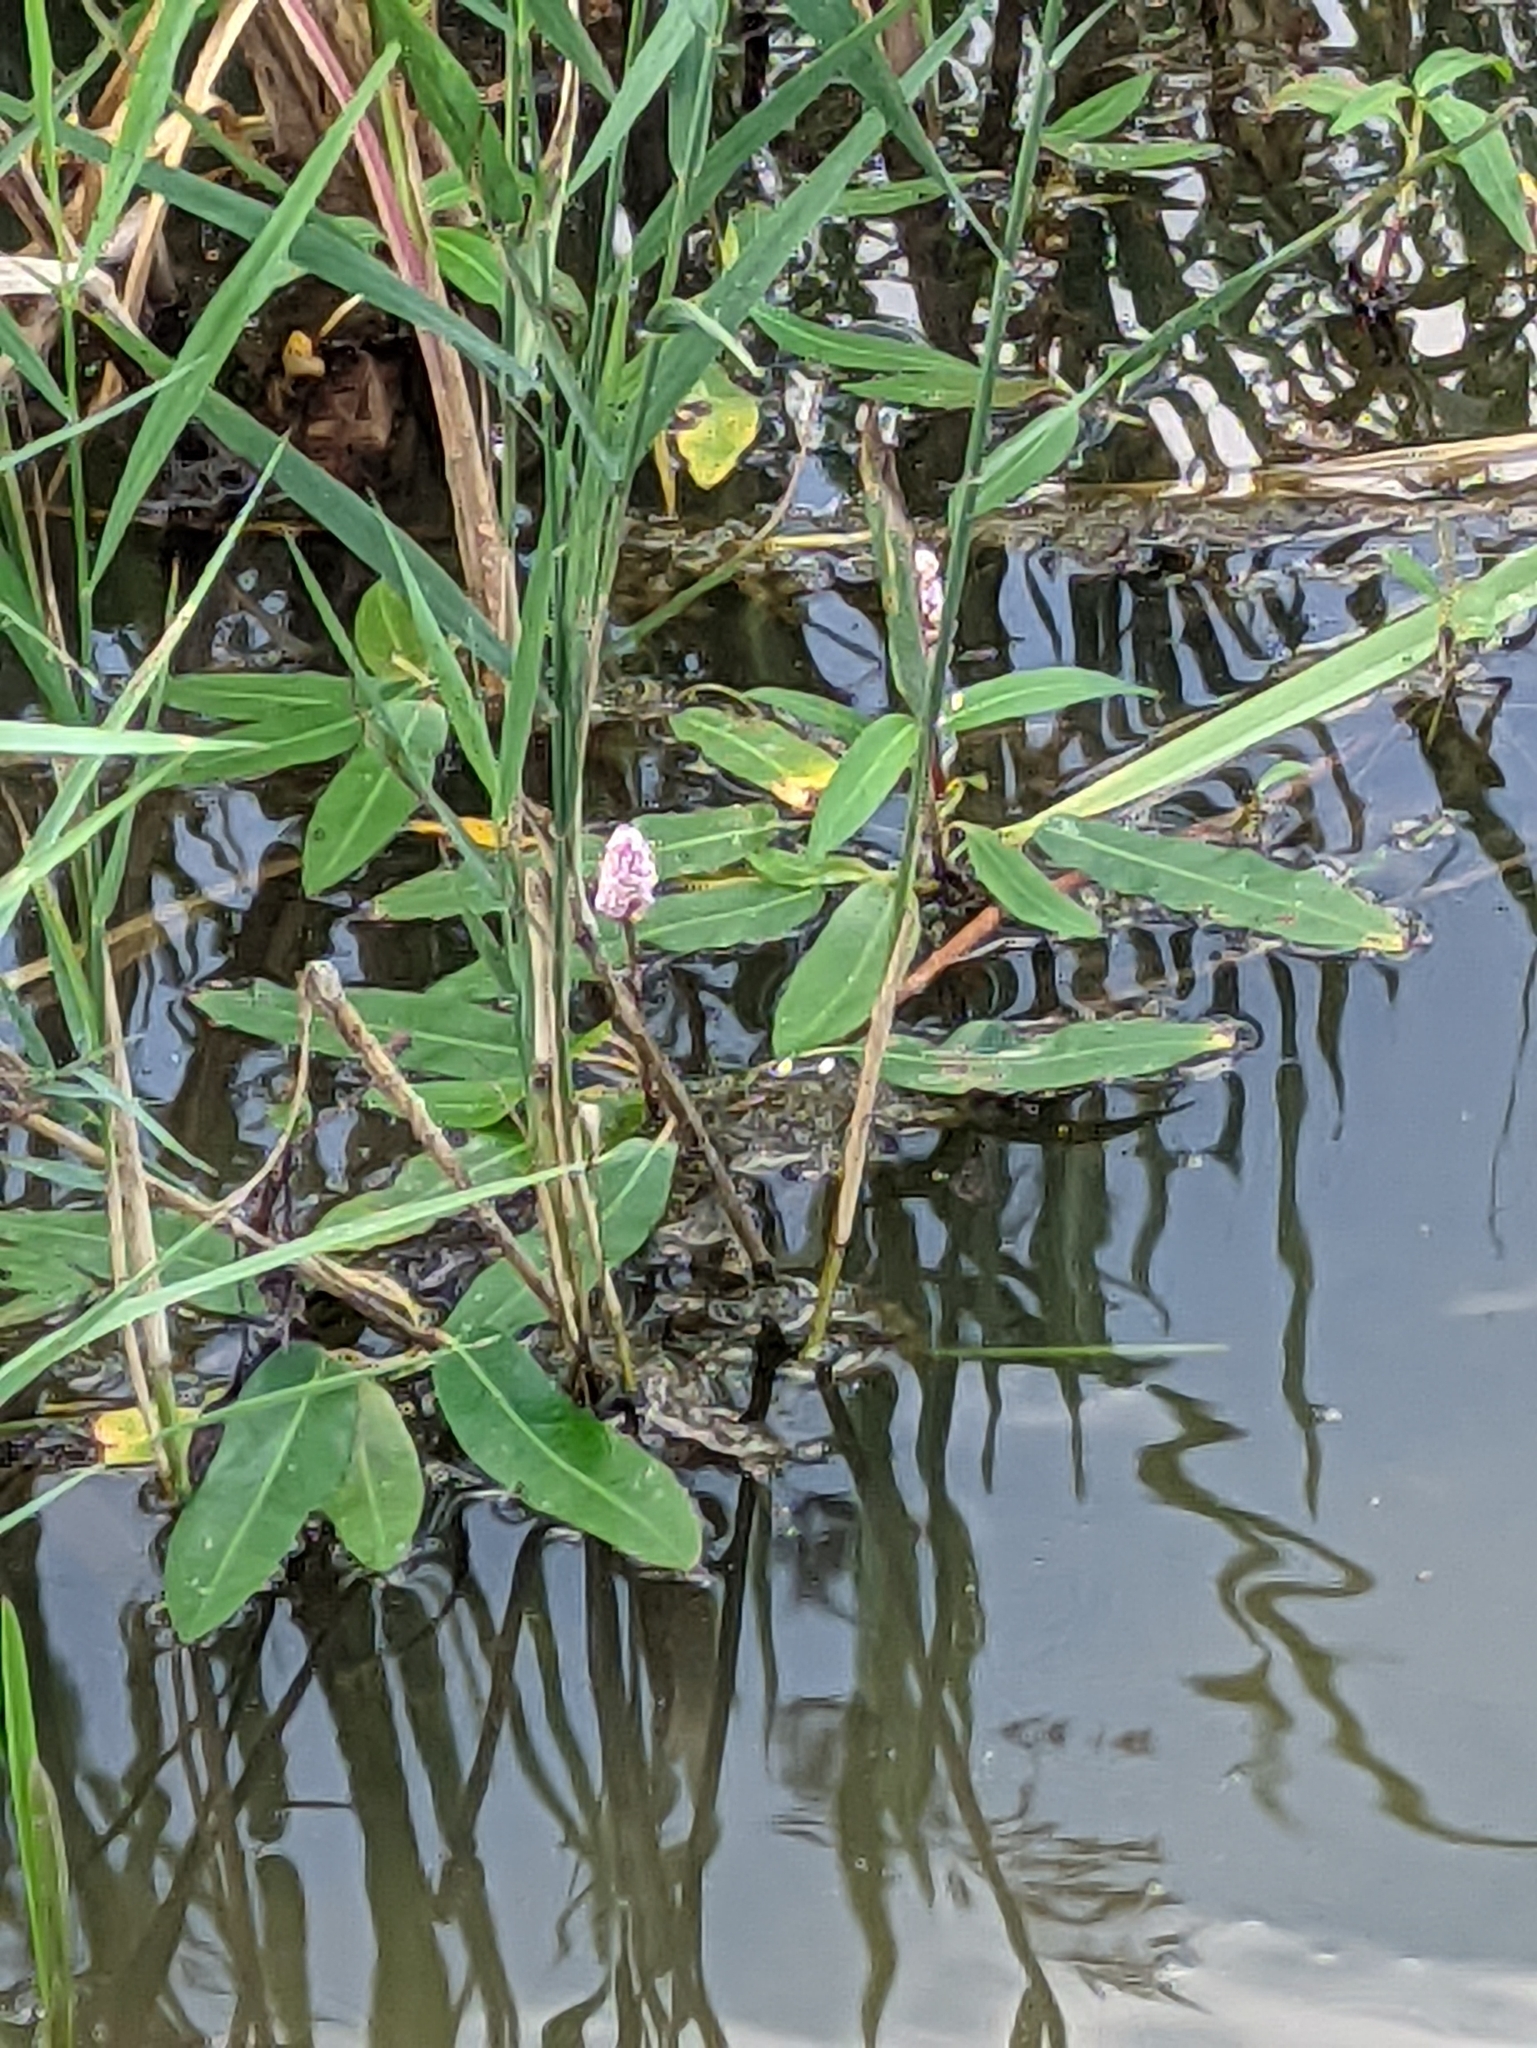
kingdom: Plantae
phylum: Tracheophyta
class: Magnoliopsida
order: Caryophyllales
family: Polygonaceae
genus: Persicaria
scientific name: Persicaria amphibia
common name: Amphibious bistort
